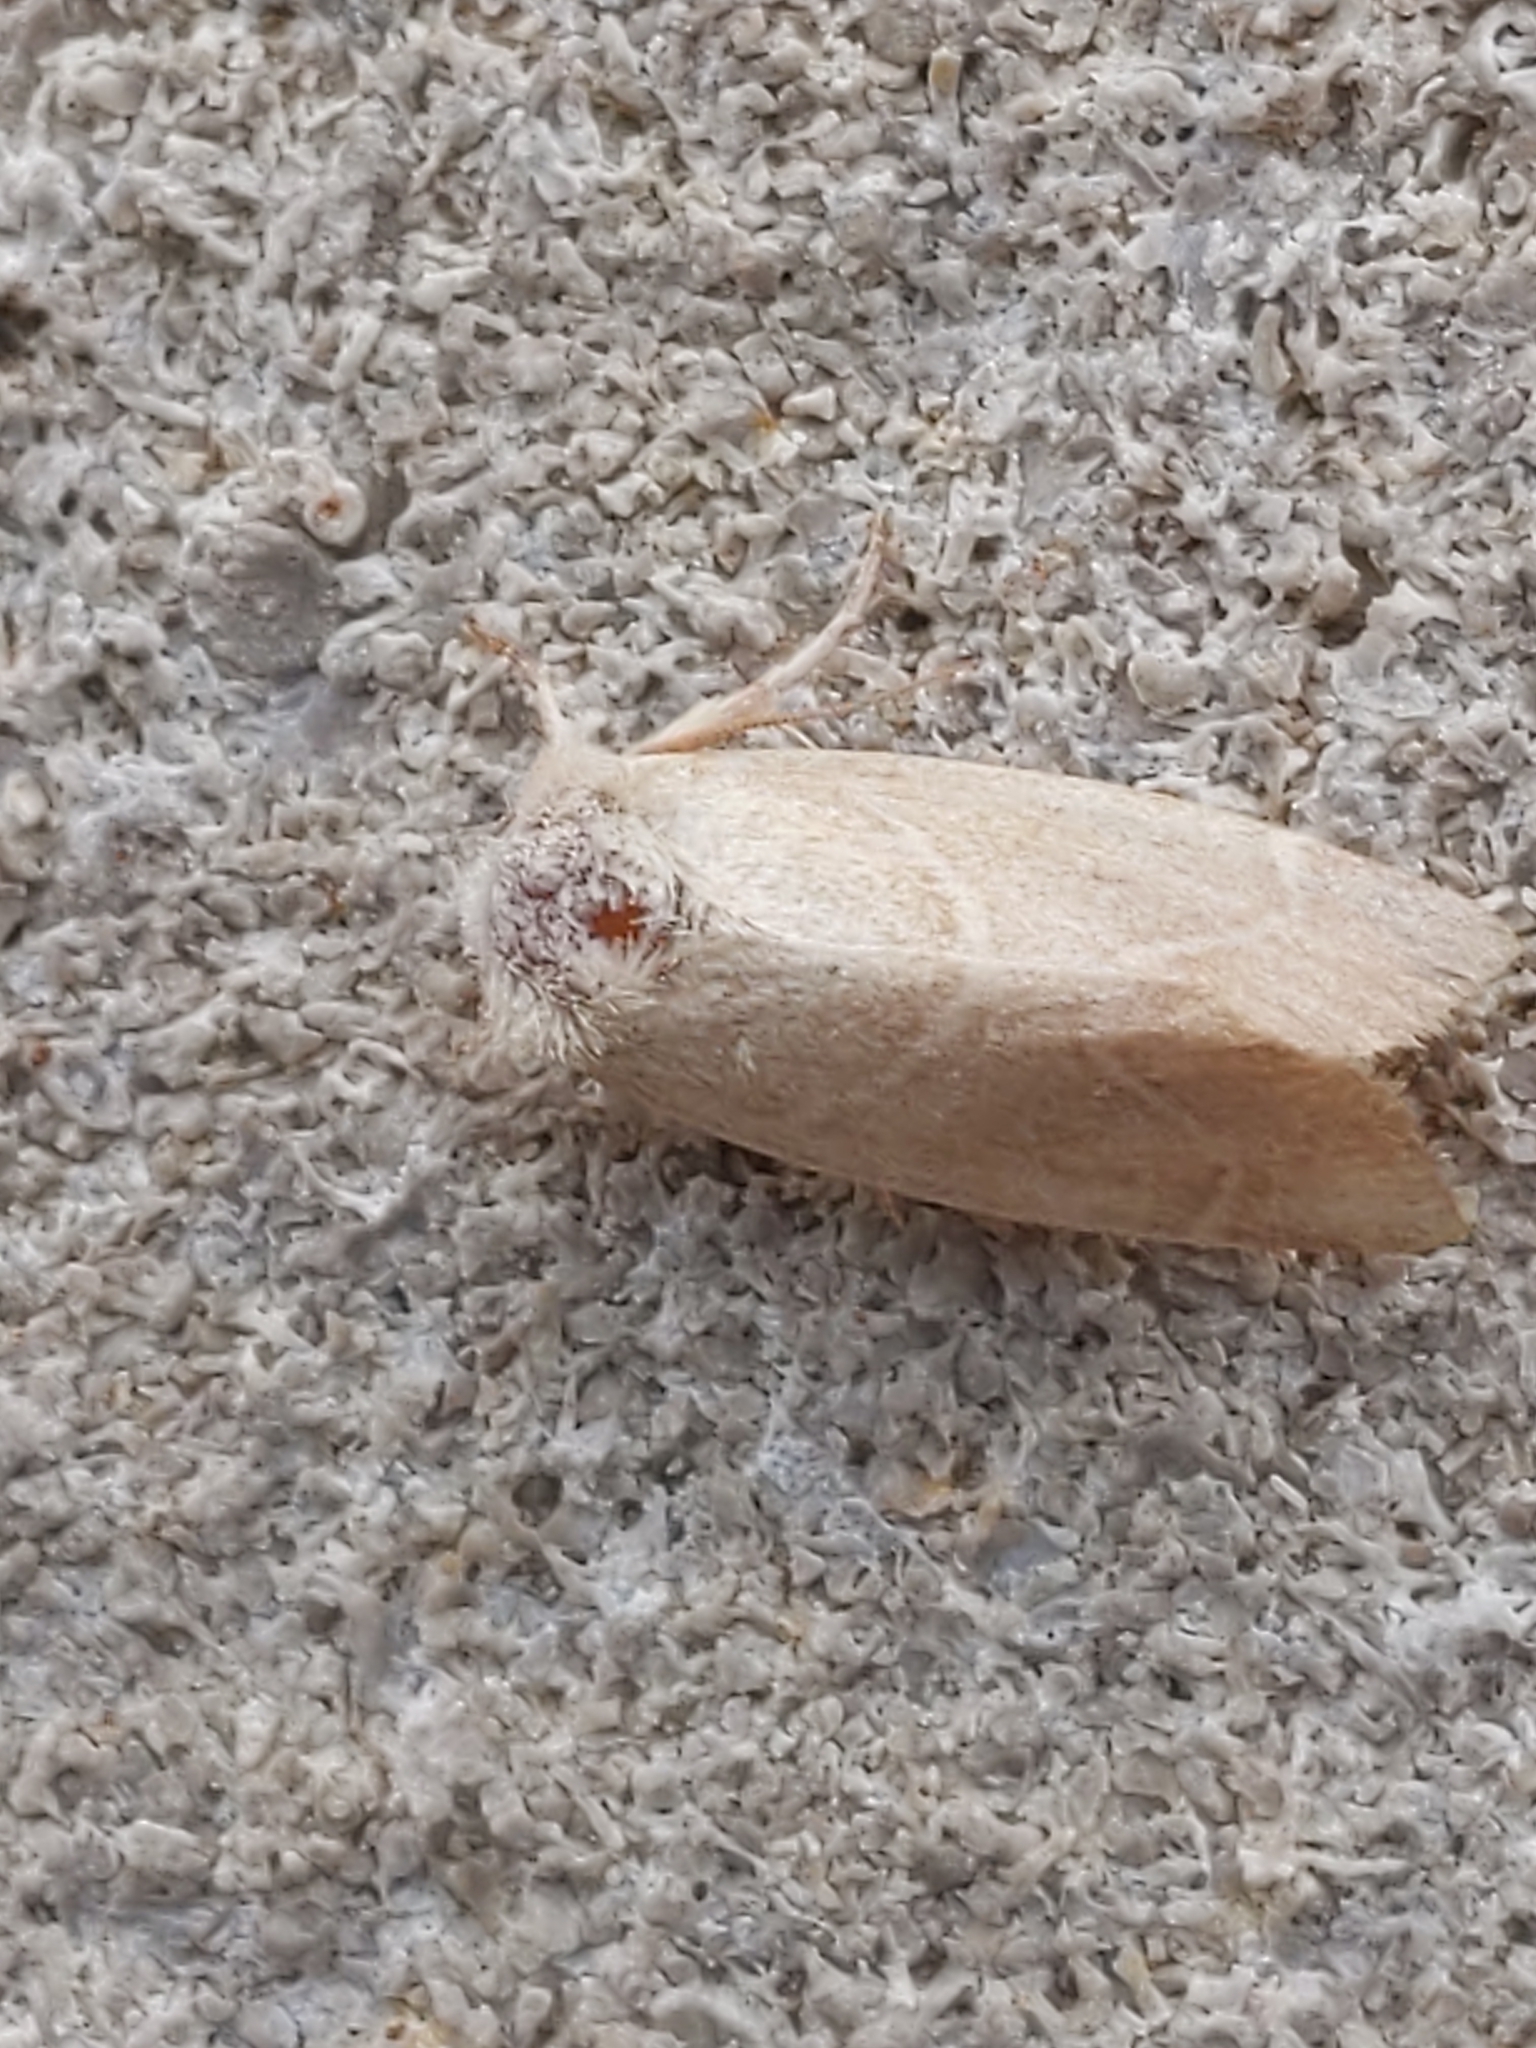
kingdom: Animalia
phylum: Arthropoda
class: Insecta
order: Lepidoptera
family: Noctuidae
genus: Cosmia
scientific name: Cosmia calami
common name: American dun-bar moth
